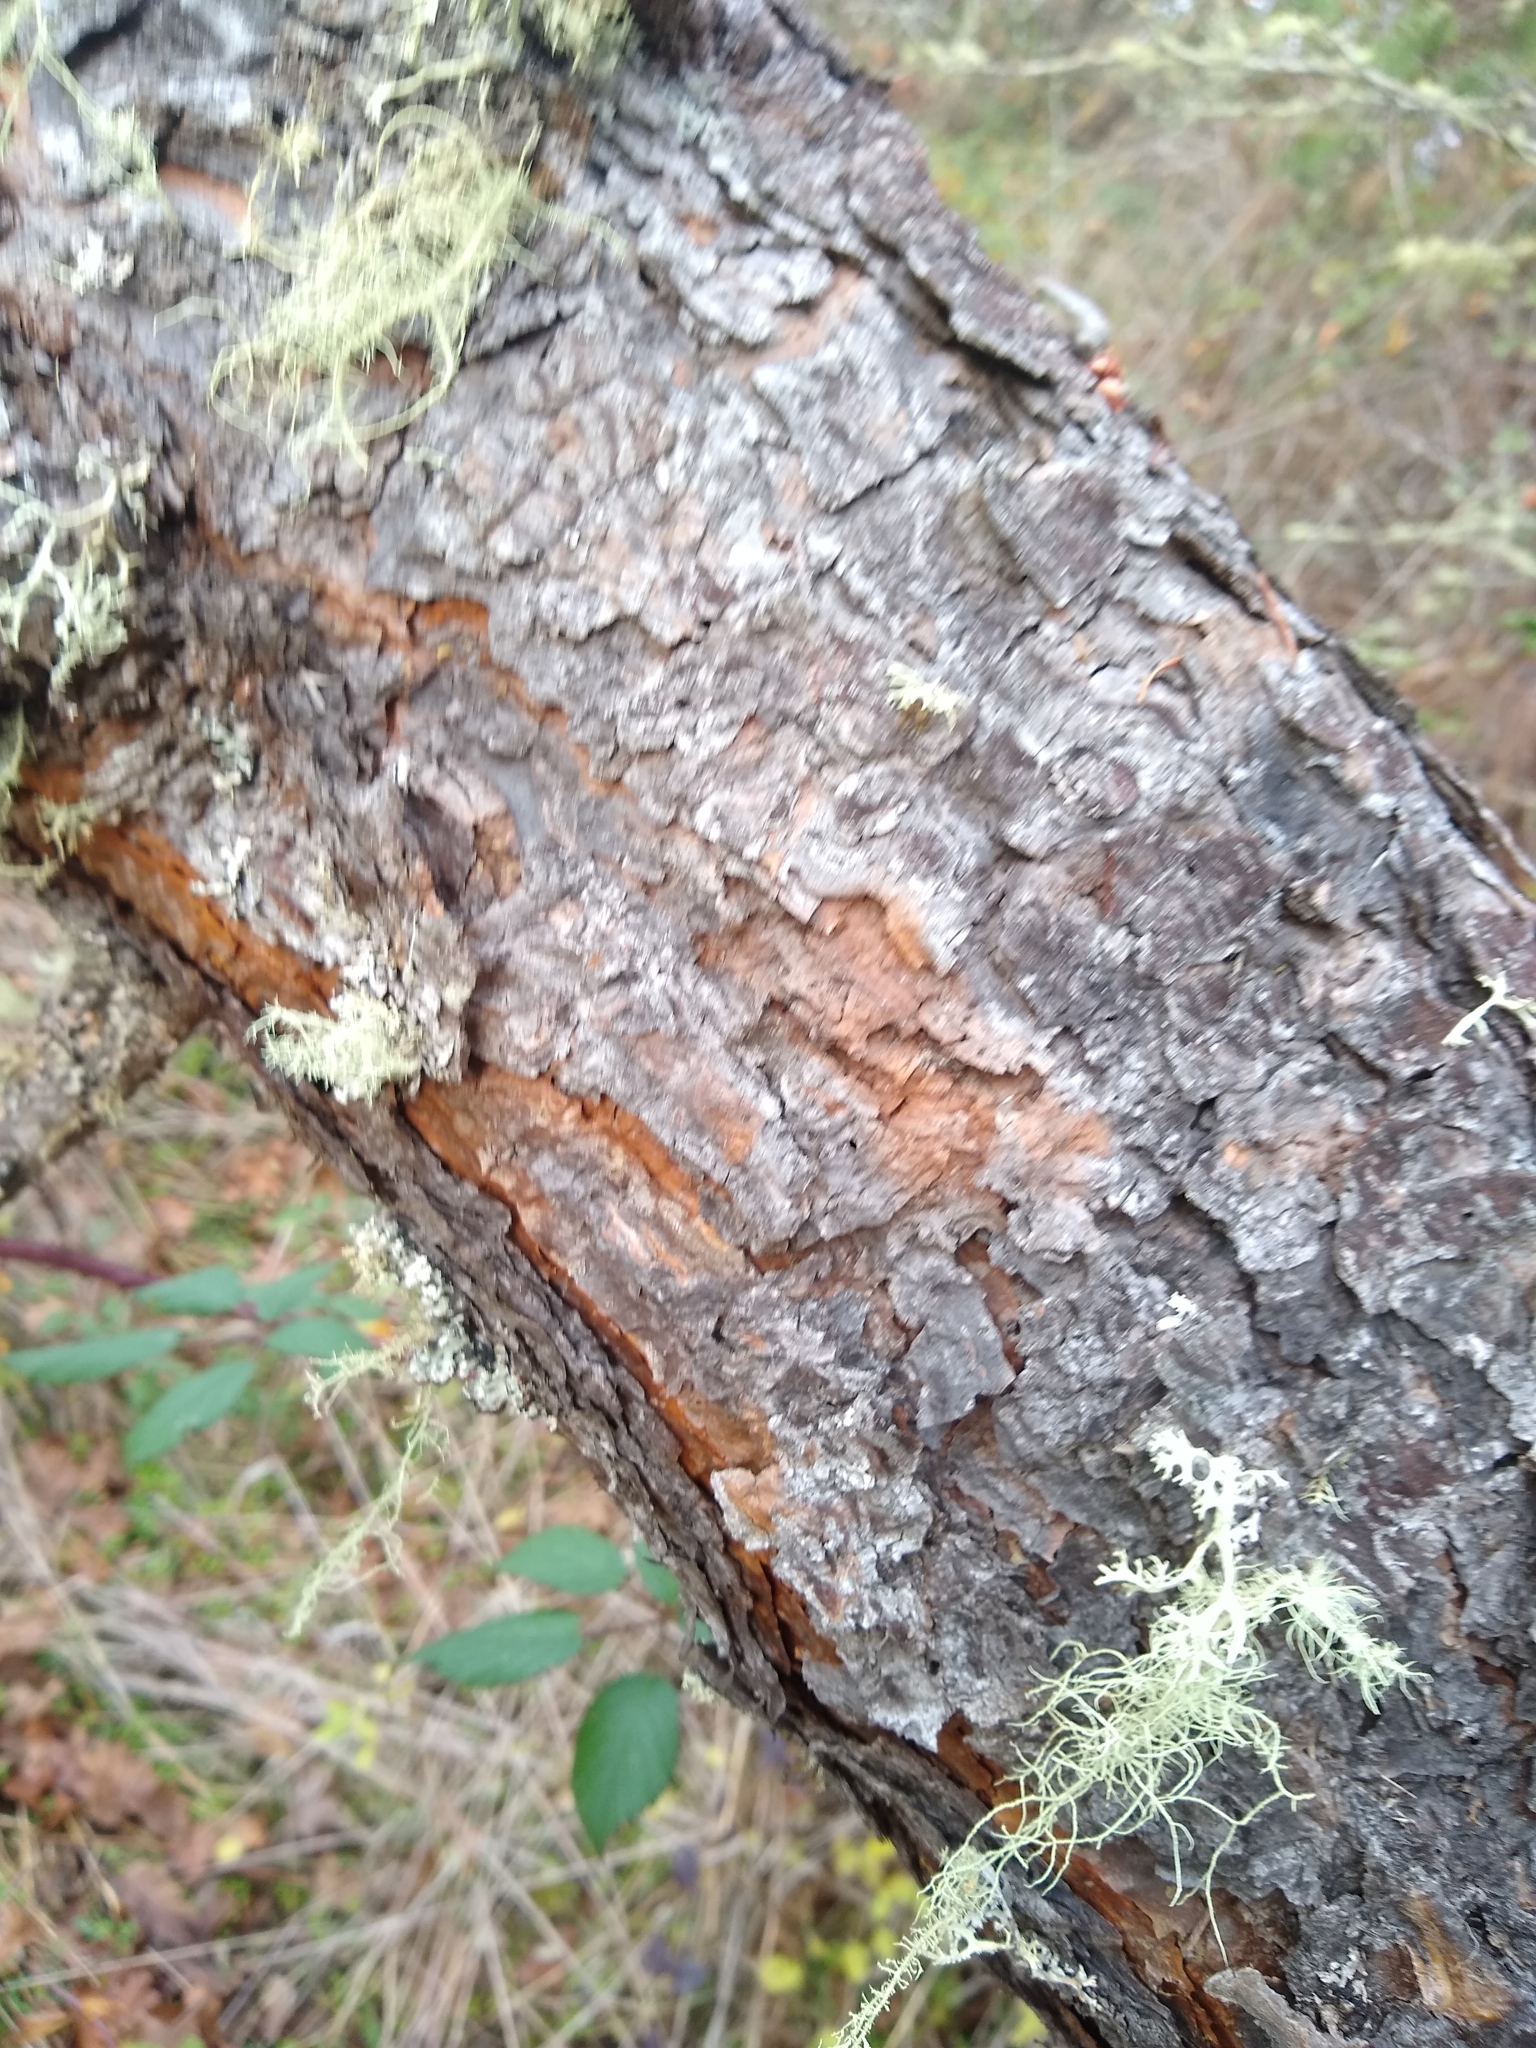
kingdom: Plantae
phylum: Tracheophyta
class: Pinopsida
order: Pinales
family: Pinaceae
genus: Pinus
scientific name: Pinus ponderosa
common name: Western yellow-pine
